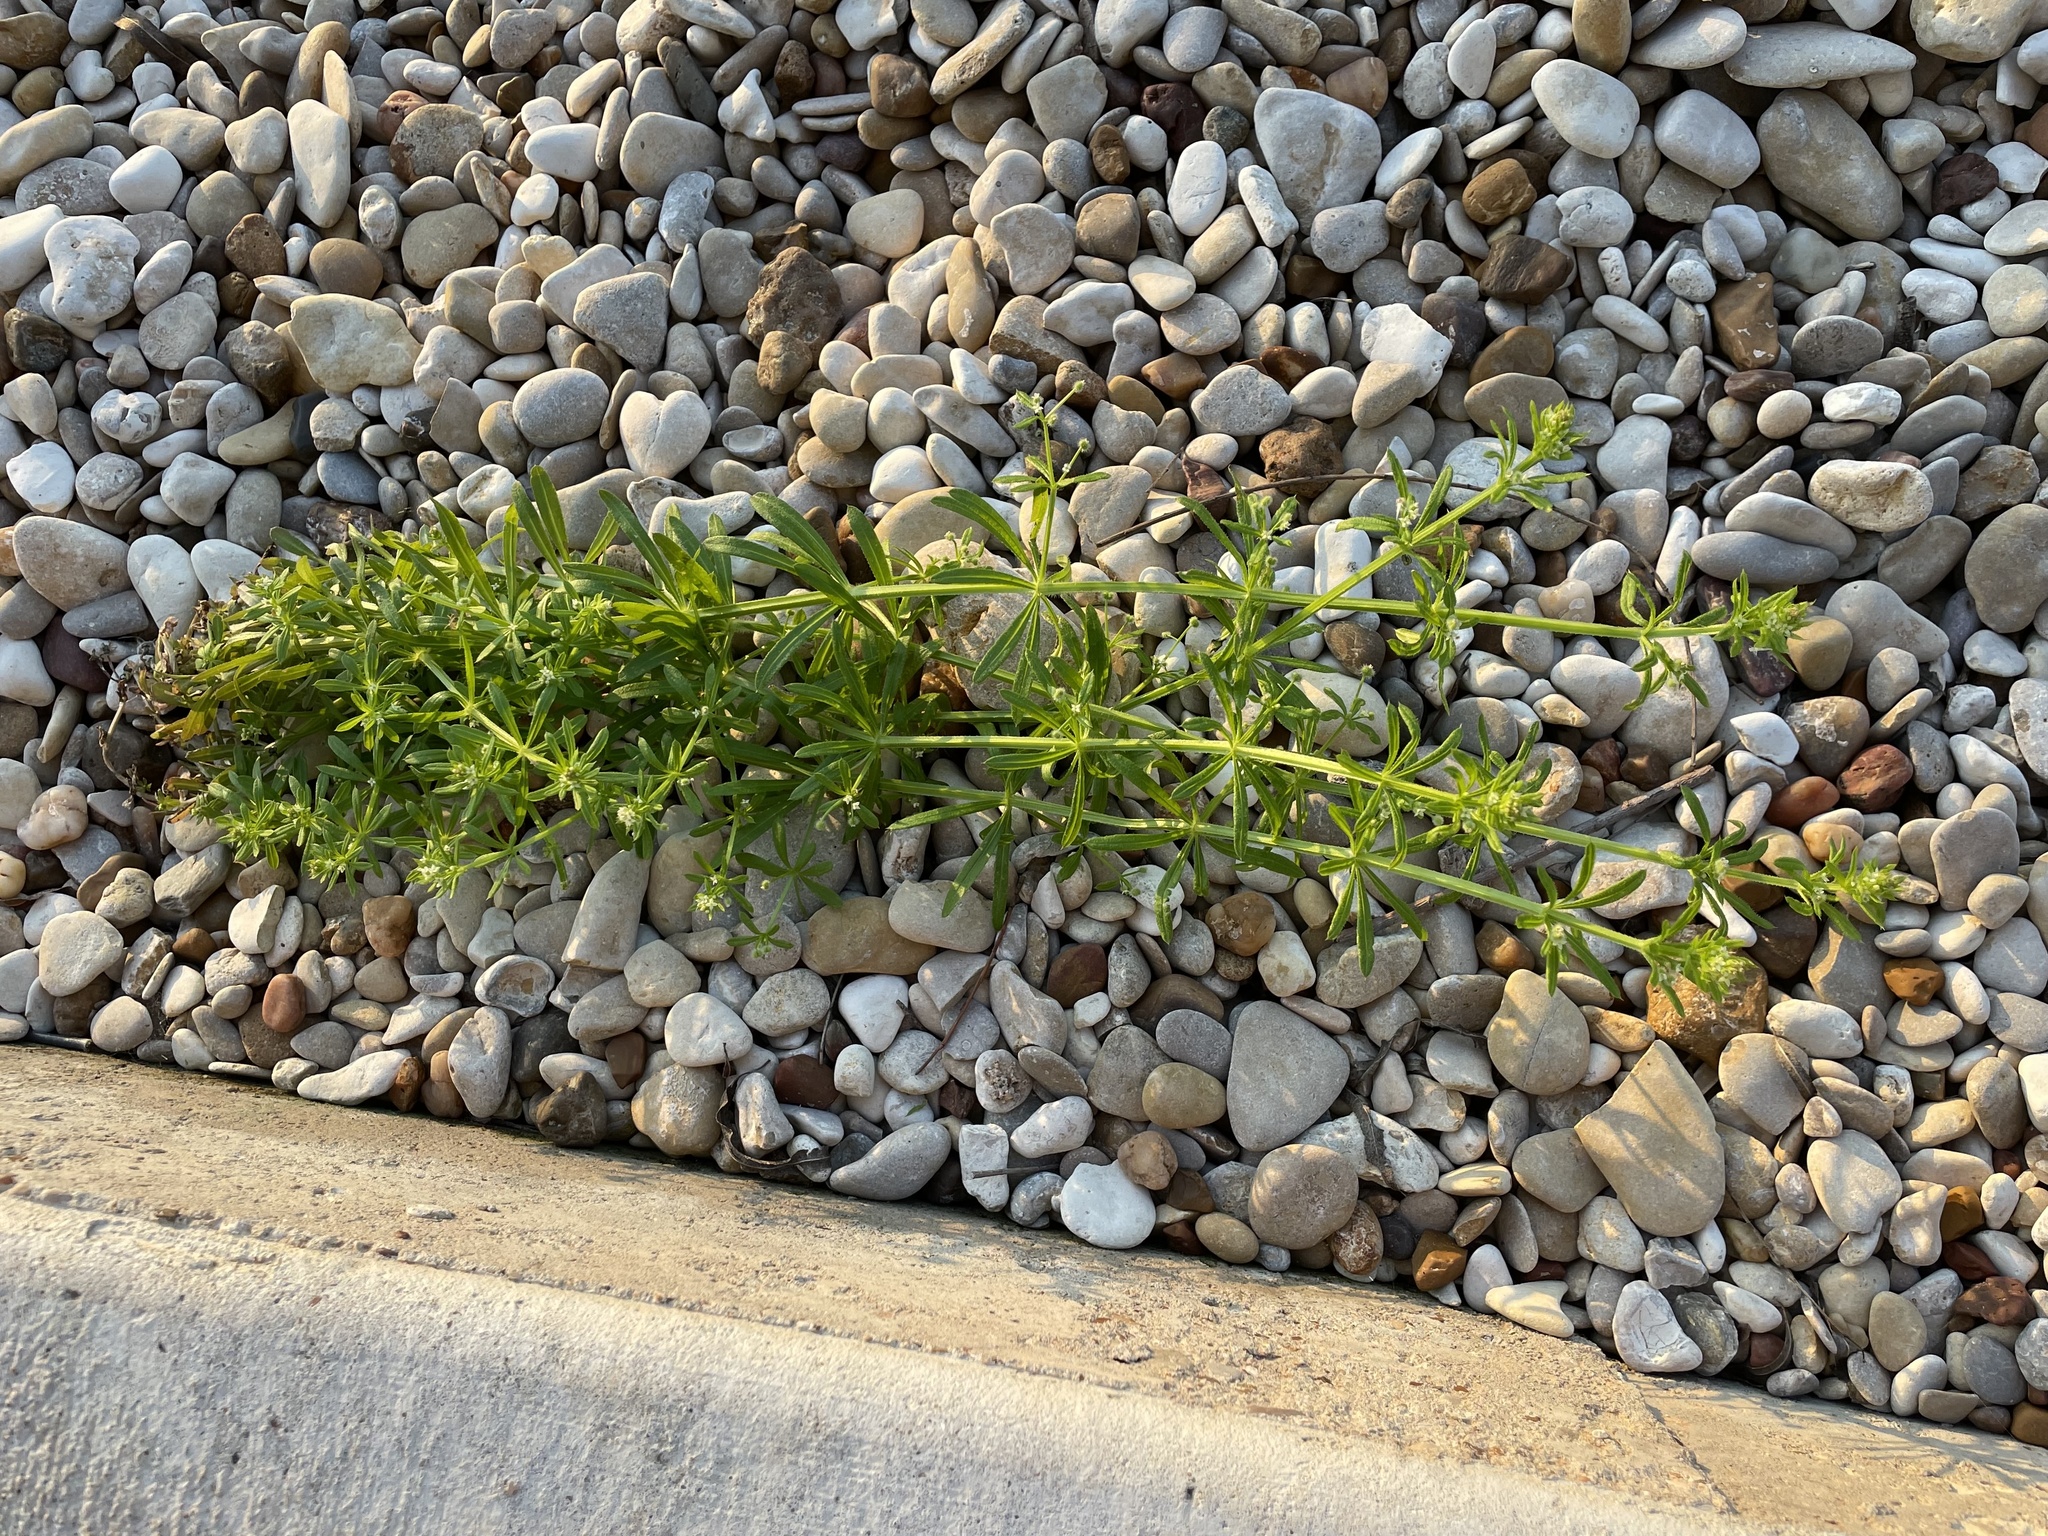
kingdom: Plantae
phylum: Tracheophyta
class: Magnoliopsida
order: Gentianales
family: Rubiaceae
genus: Galium
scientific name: Galium aparine
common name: Cleavers
